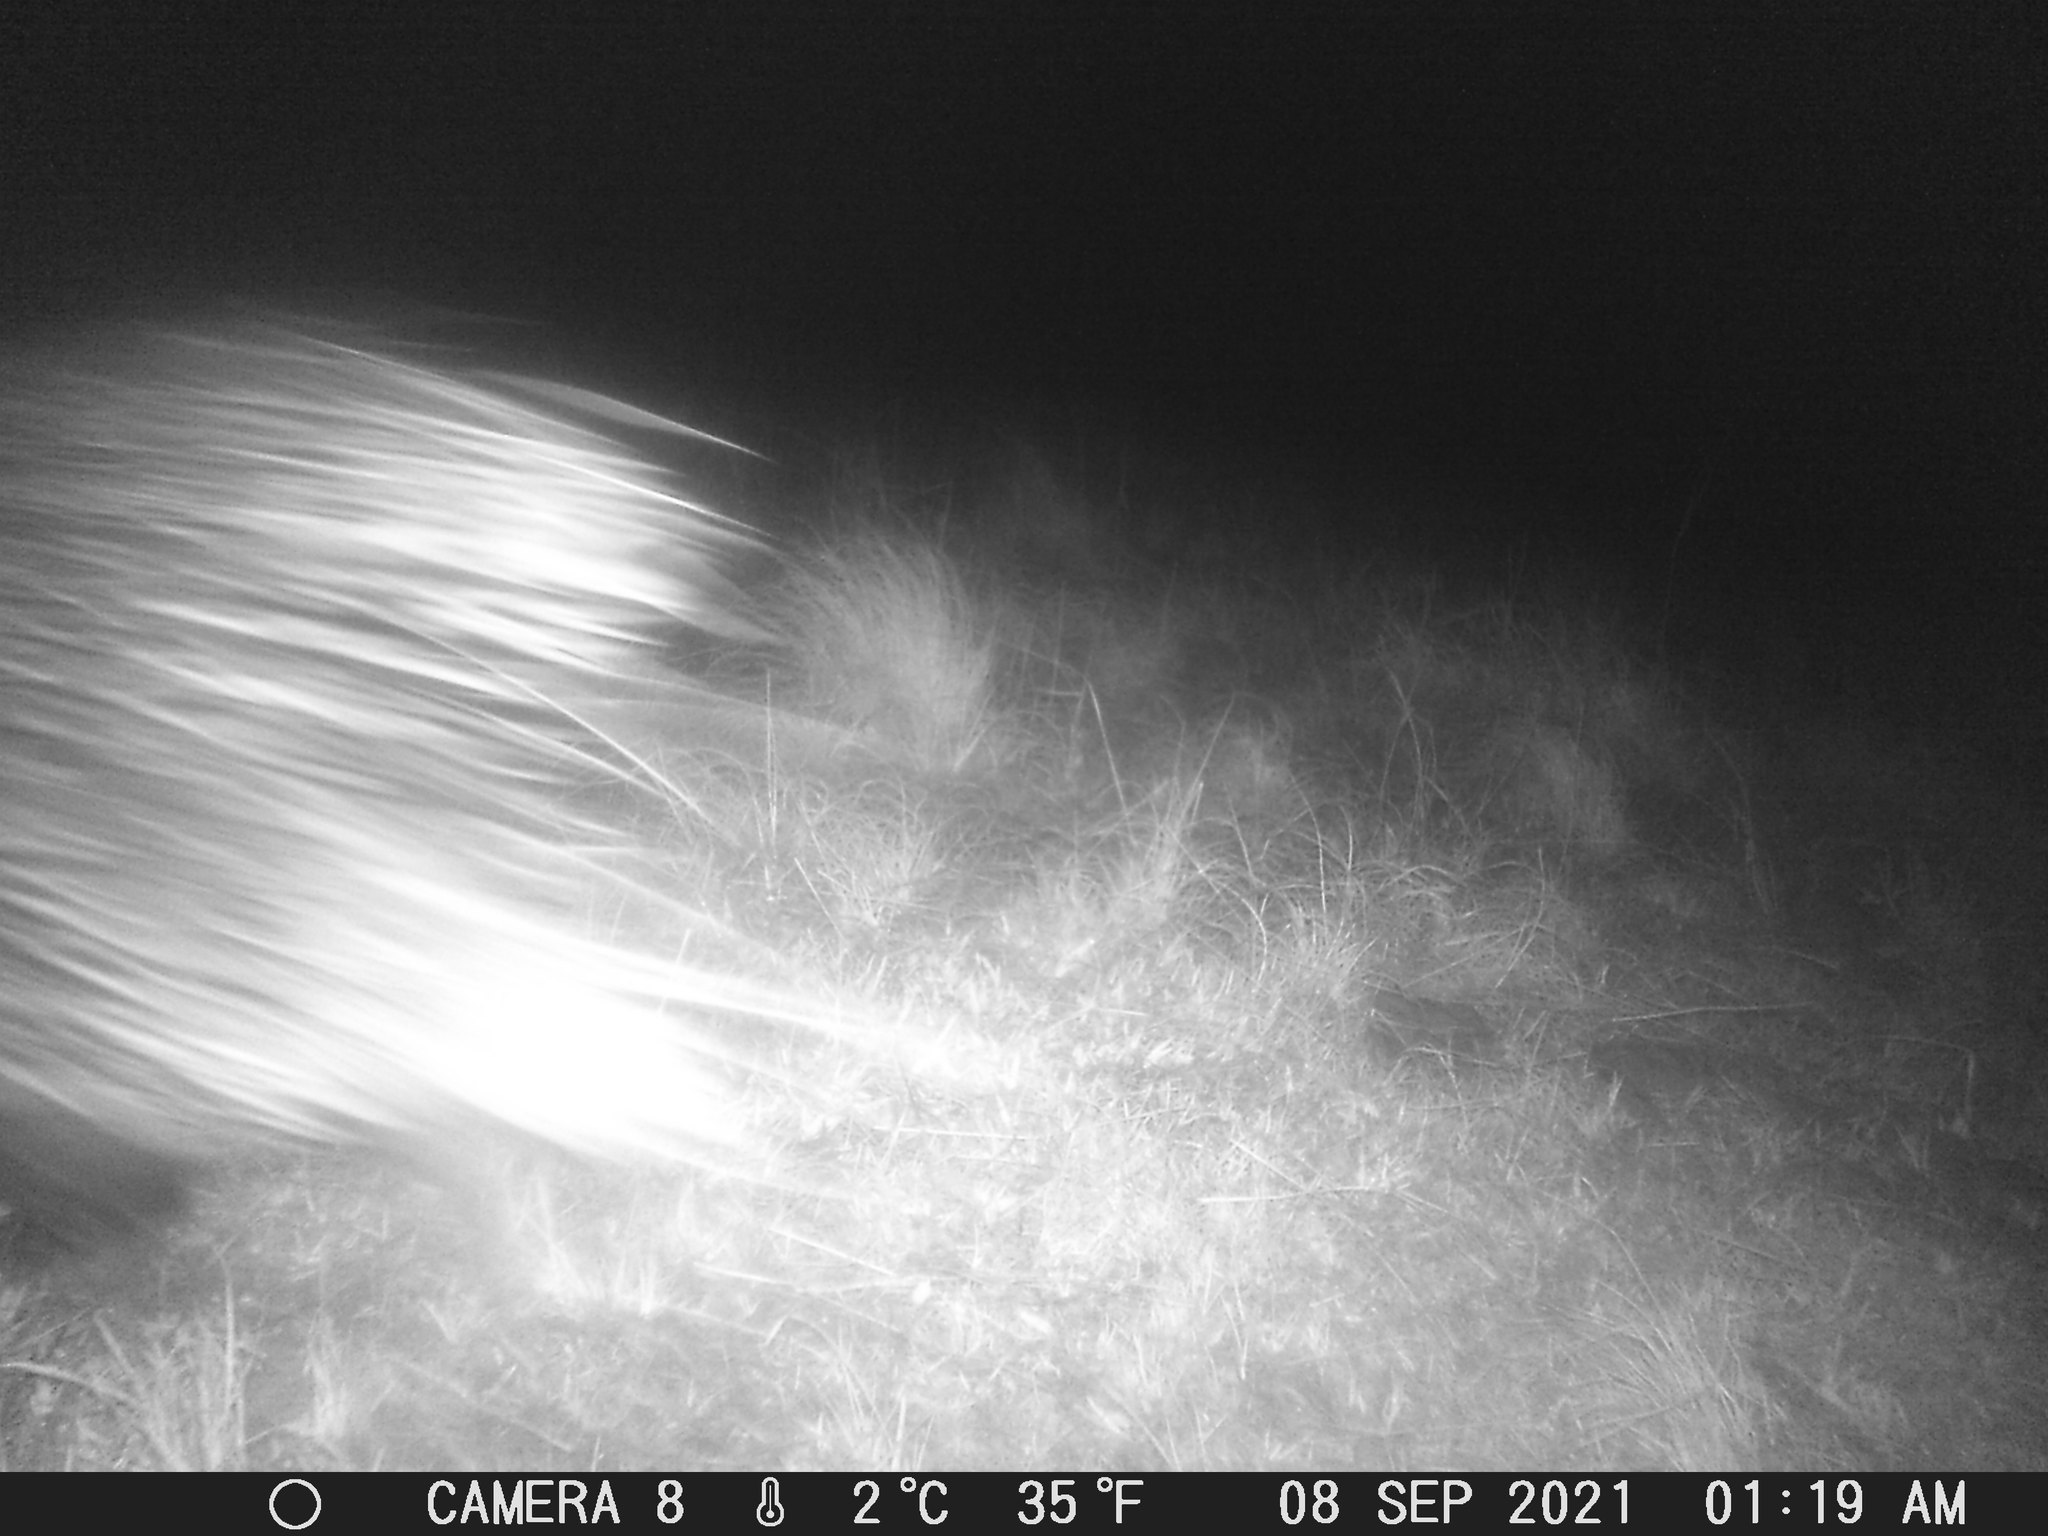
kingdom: Animalia
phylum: Chordata
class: Mammalia
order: Rodentia
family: Hystricidae
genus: Hystrix
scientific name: Hystrix africaeaustralis
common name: Cape porcupine
